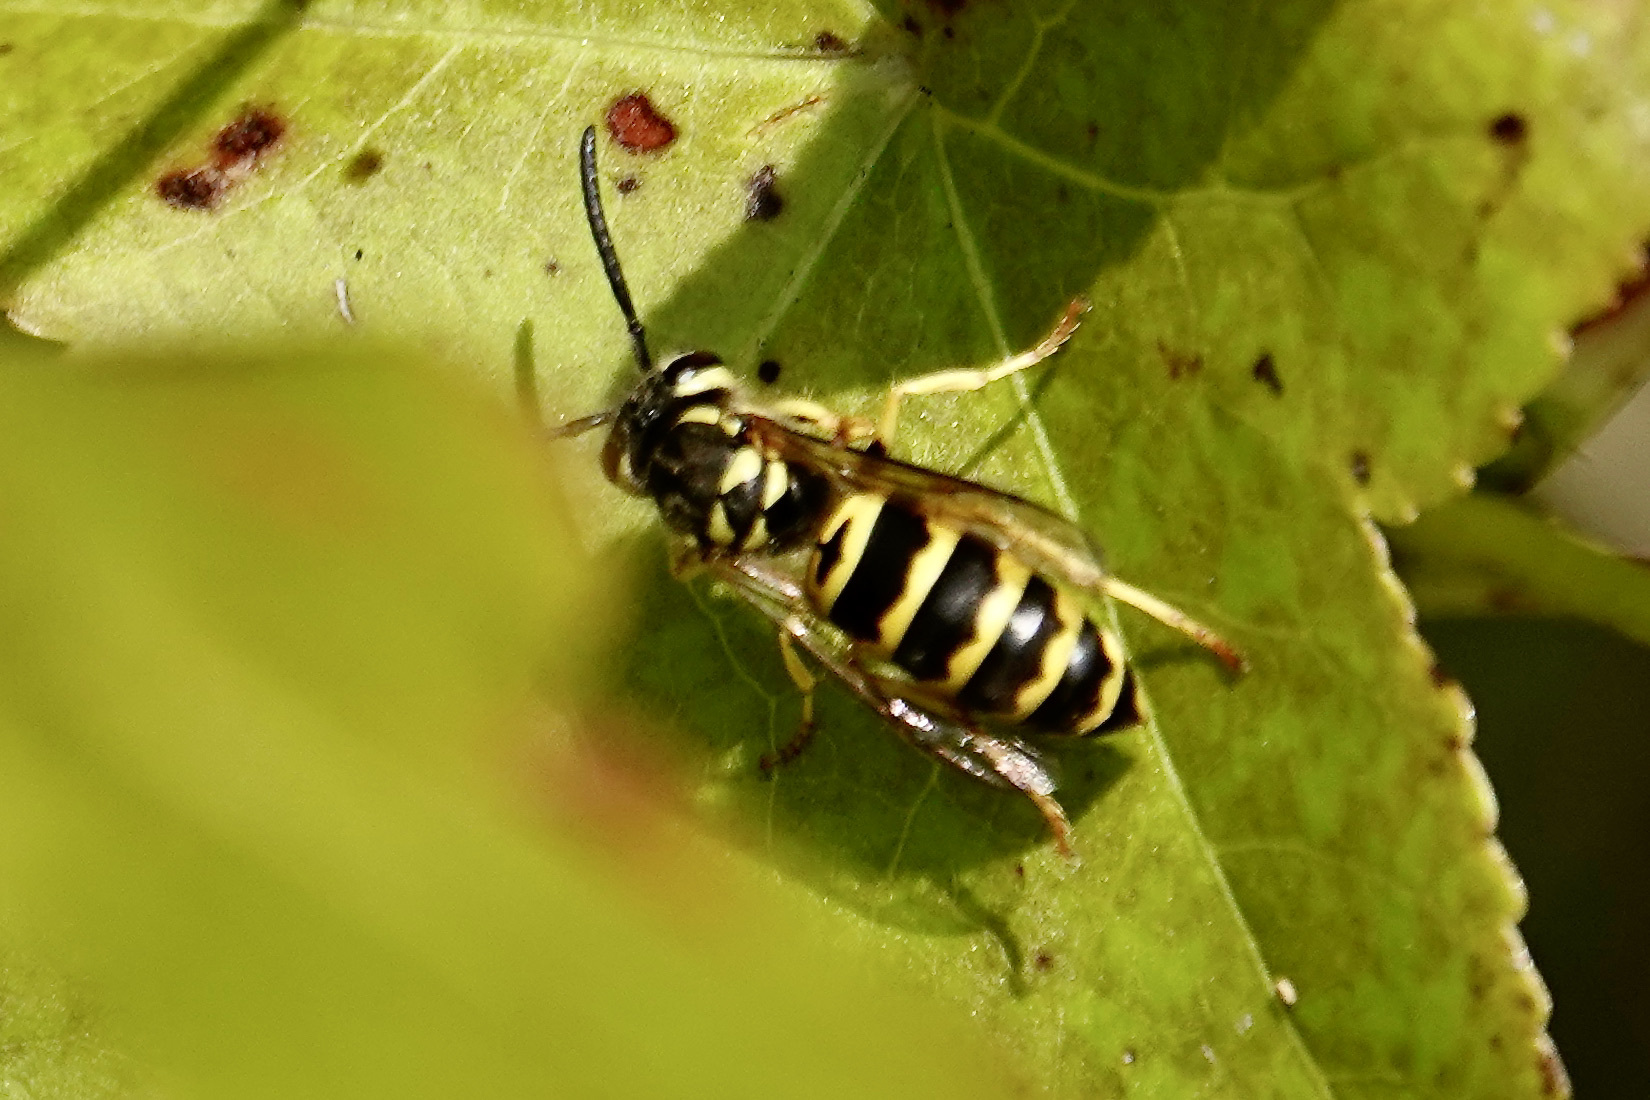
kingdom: Animalia
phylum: Arthropoda
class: Insecta
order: Hymenoptera
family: Vespidae
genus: Vespula
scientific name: Vespula maculifrons
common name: Eastern yellowjacket
